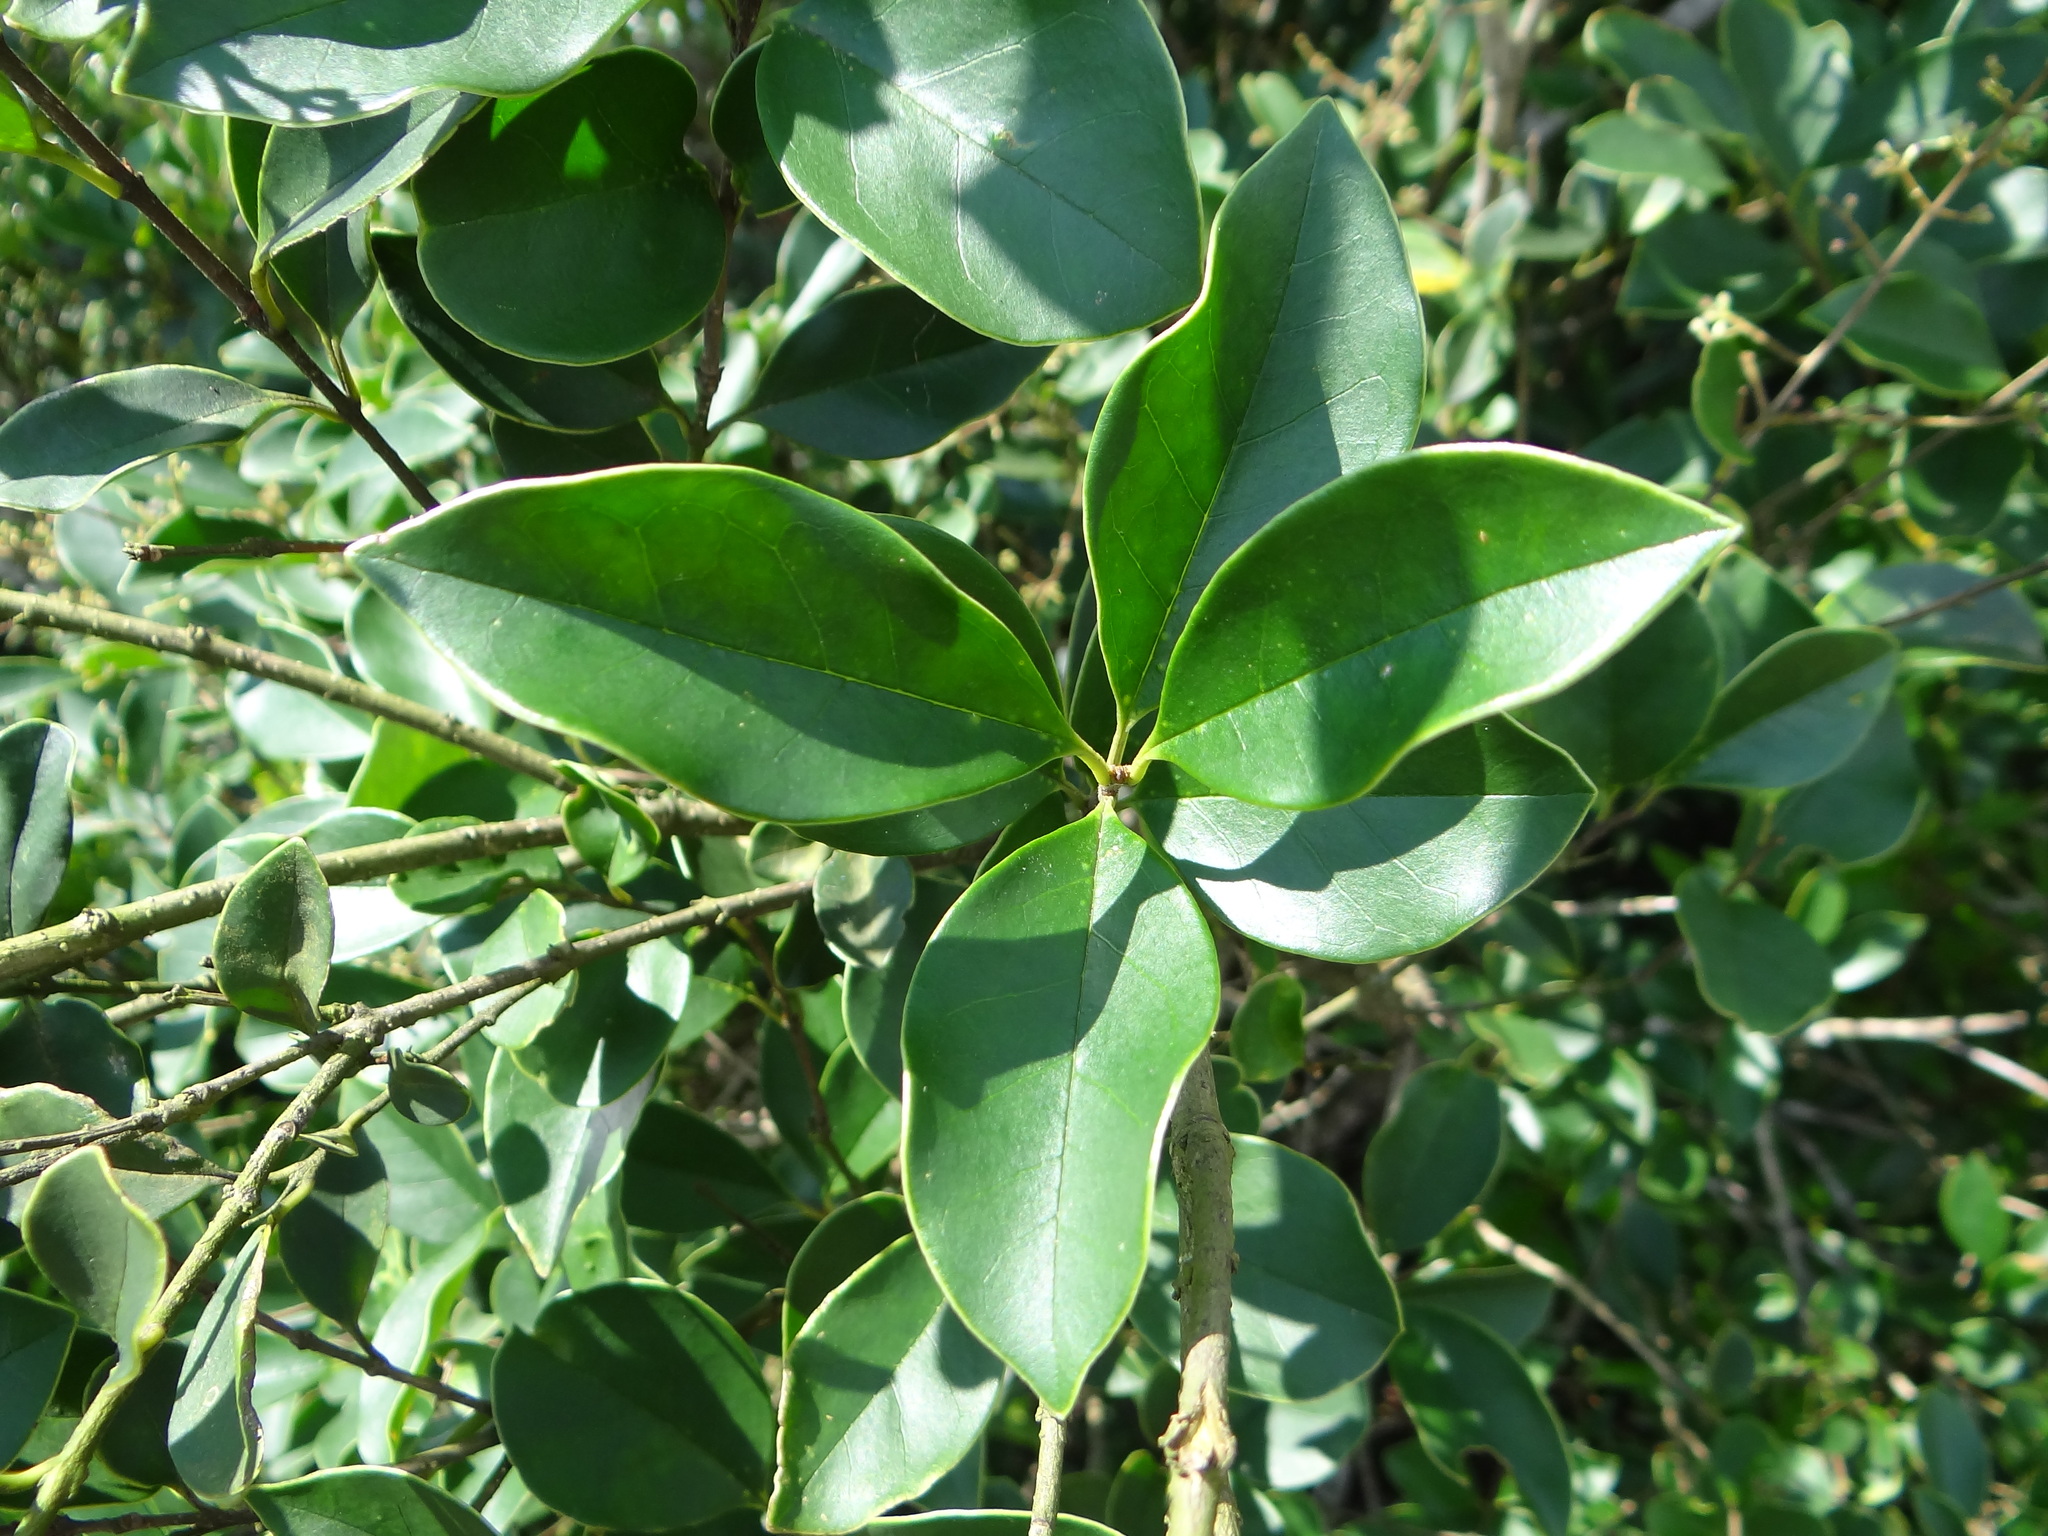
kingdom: Plantae
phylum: Tracheophyta
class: Magnoliopsida
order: Lamiales
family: Oleaceae
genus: Ligustrum
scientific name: Ligustrum liukiuense
